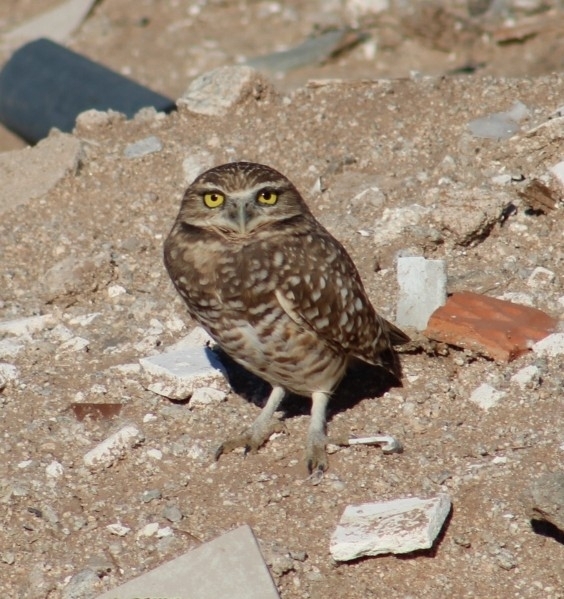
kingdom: Animalia
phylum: Chordata
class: Aves
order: Strigiformes
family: Strigidae
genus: Athene
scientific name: Athene cunicularia
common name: Burrowing owl
